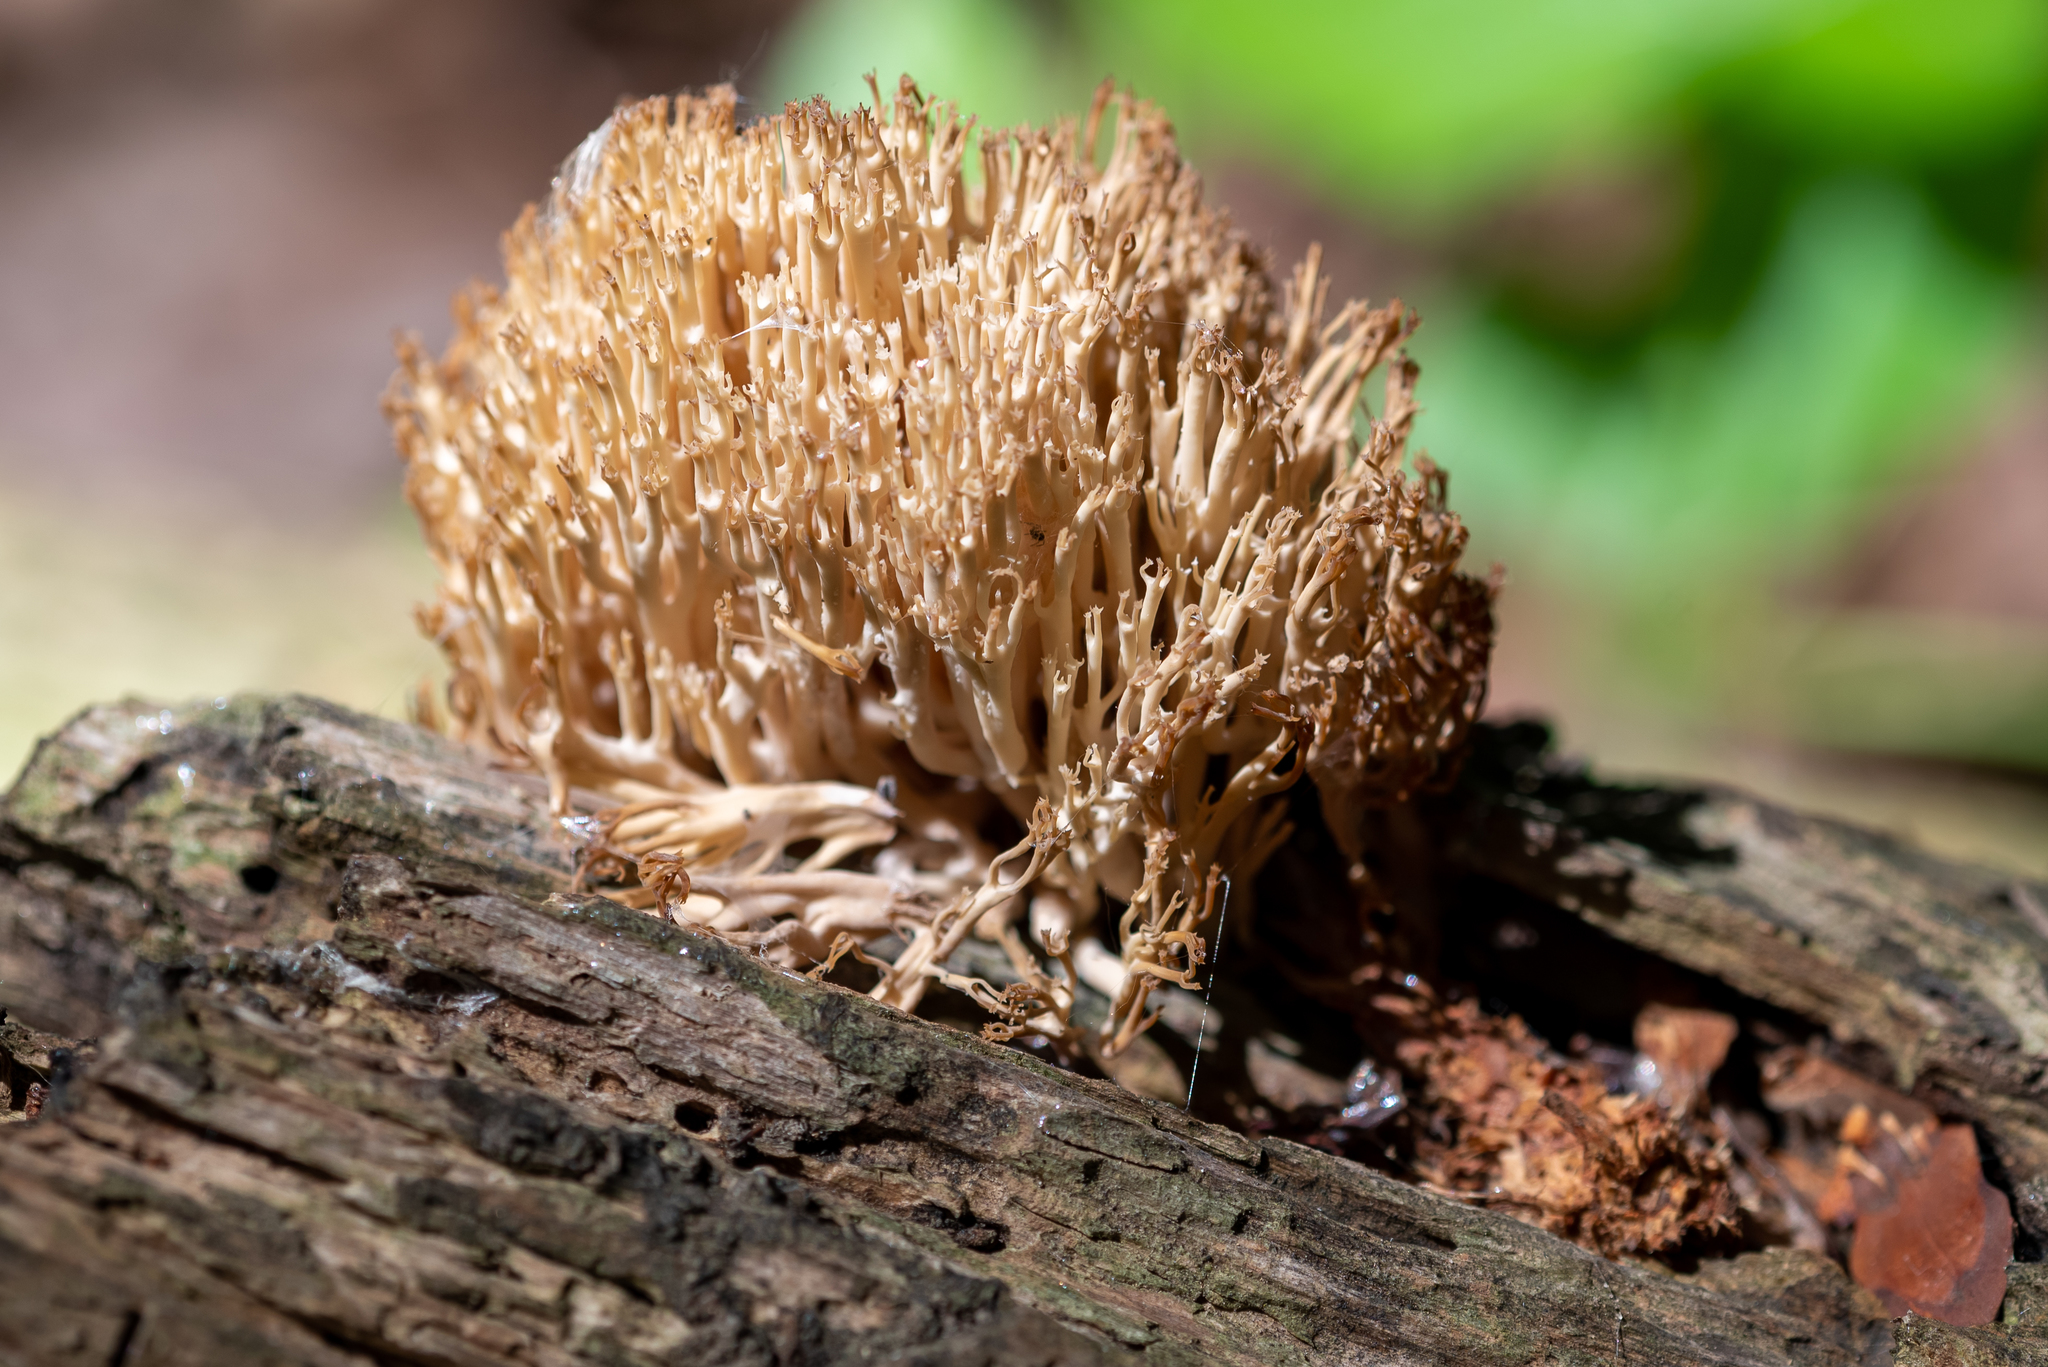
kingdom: Fungi
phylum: Basidiomycota
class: Agaricomycetes
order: Russulales
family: Auriscalpiaceae
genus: Artomyces
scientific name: Artomyces pyxidatus
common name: Crown-tipped coral fungus
